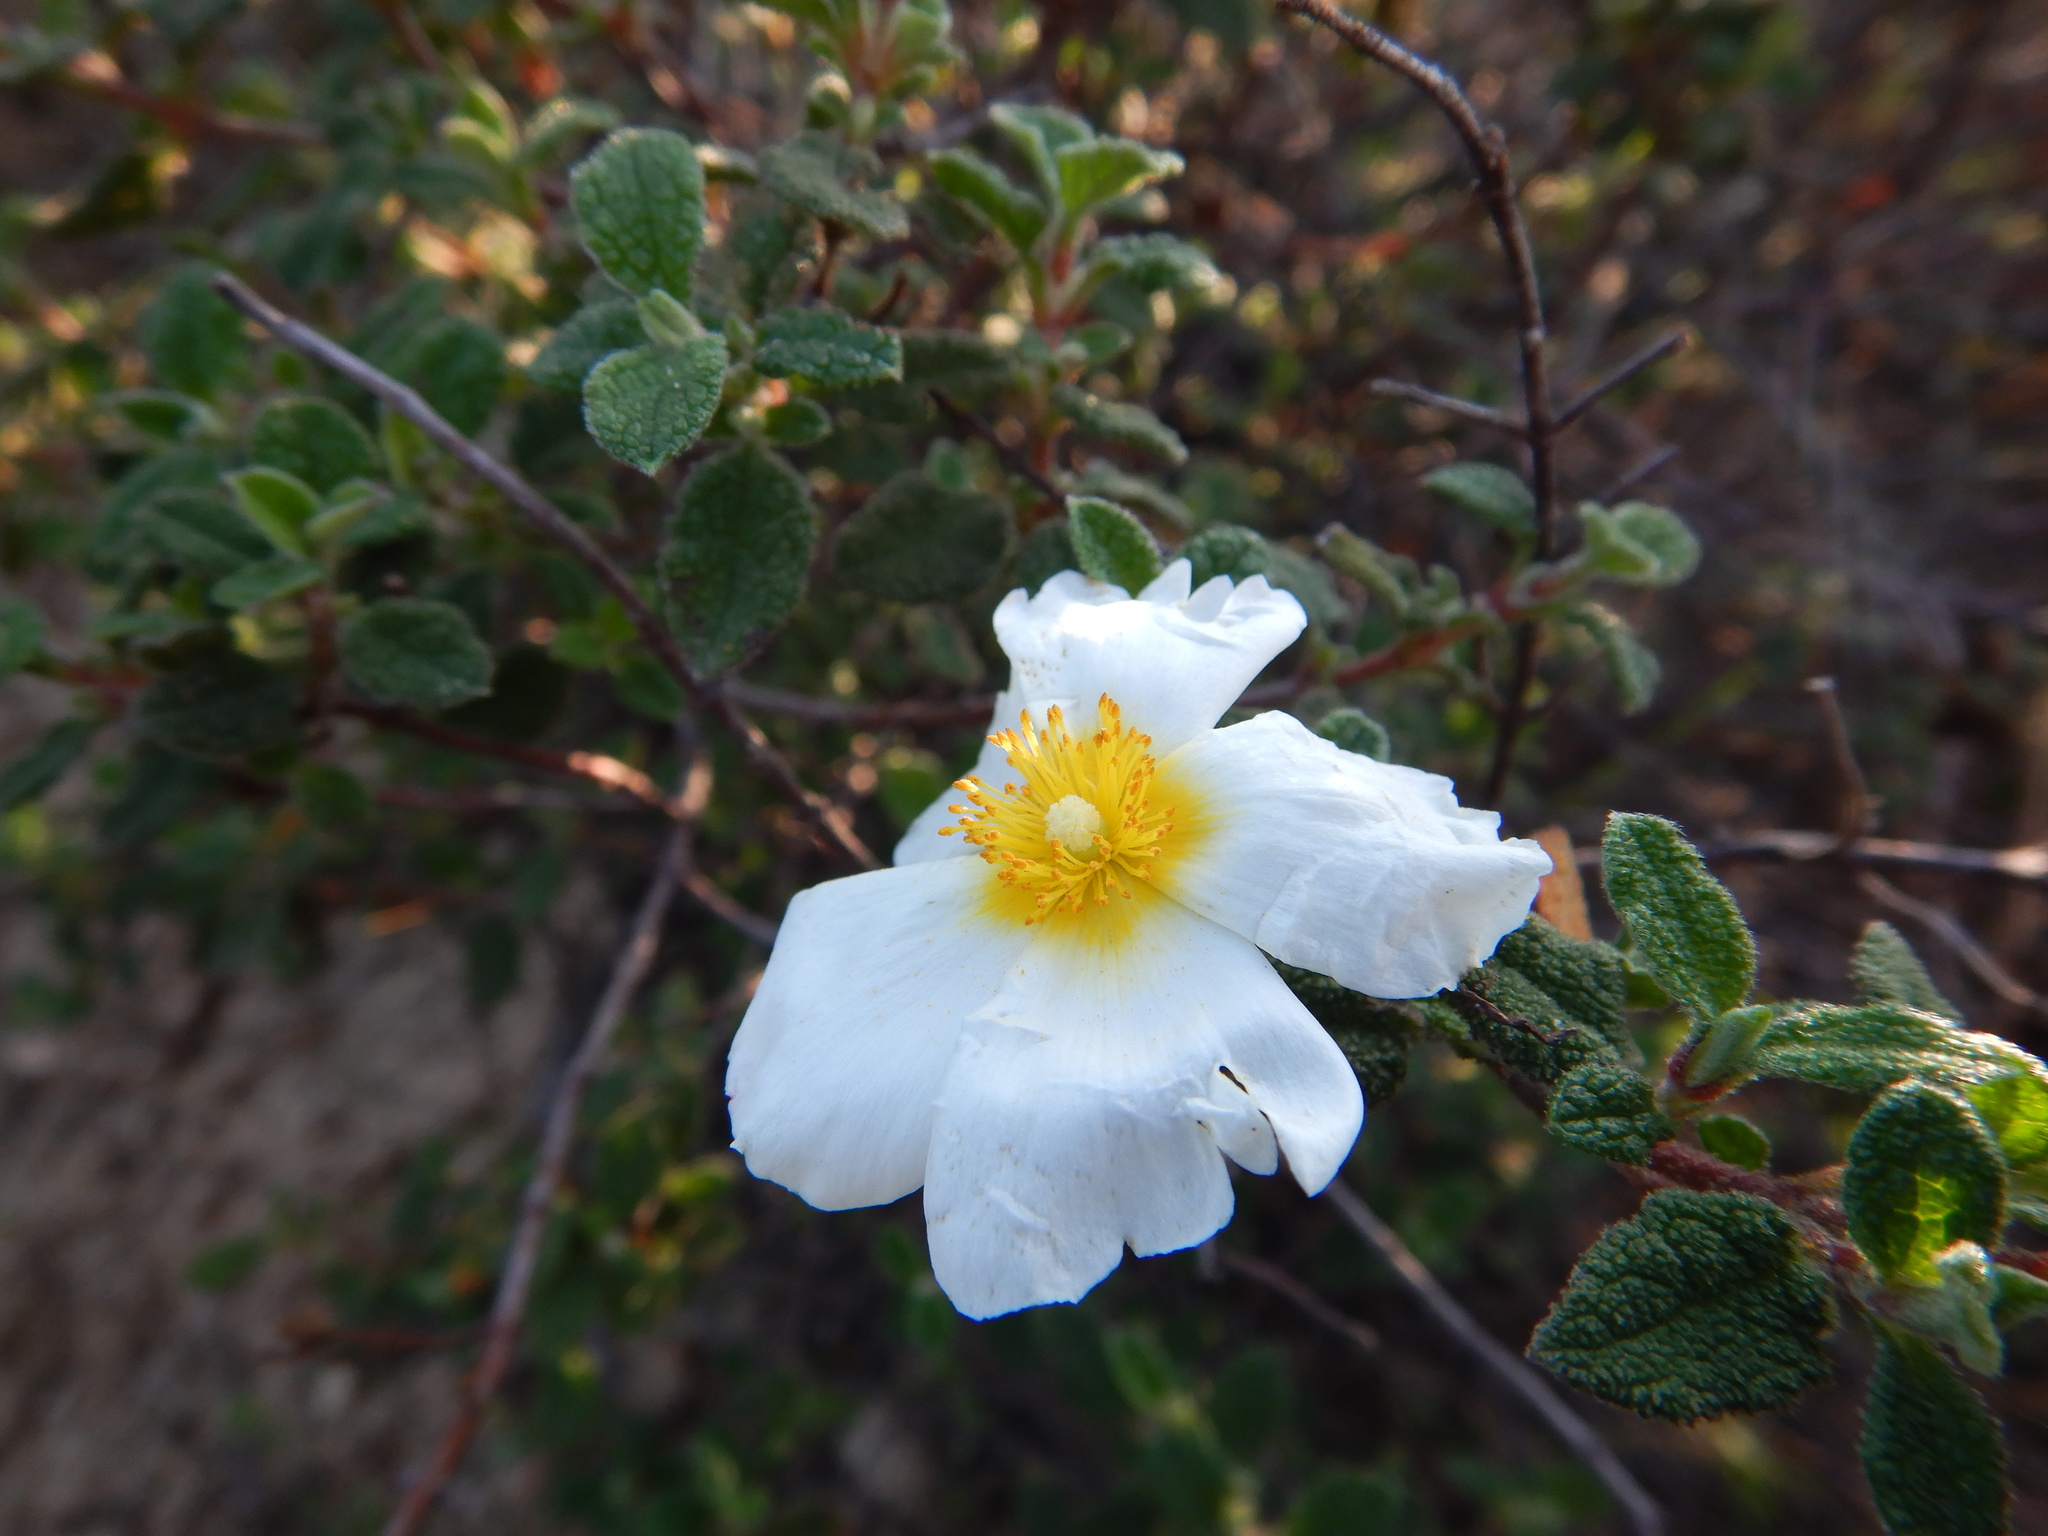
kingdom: Plantae
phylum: Tracheophyta
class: Magnoliopsida
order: Malvales
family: Cistaceae
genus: Cistus
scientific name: Cistus salviifolius
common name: Salvia cistus
